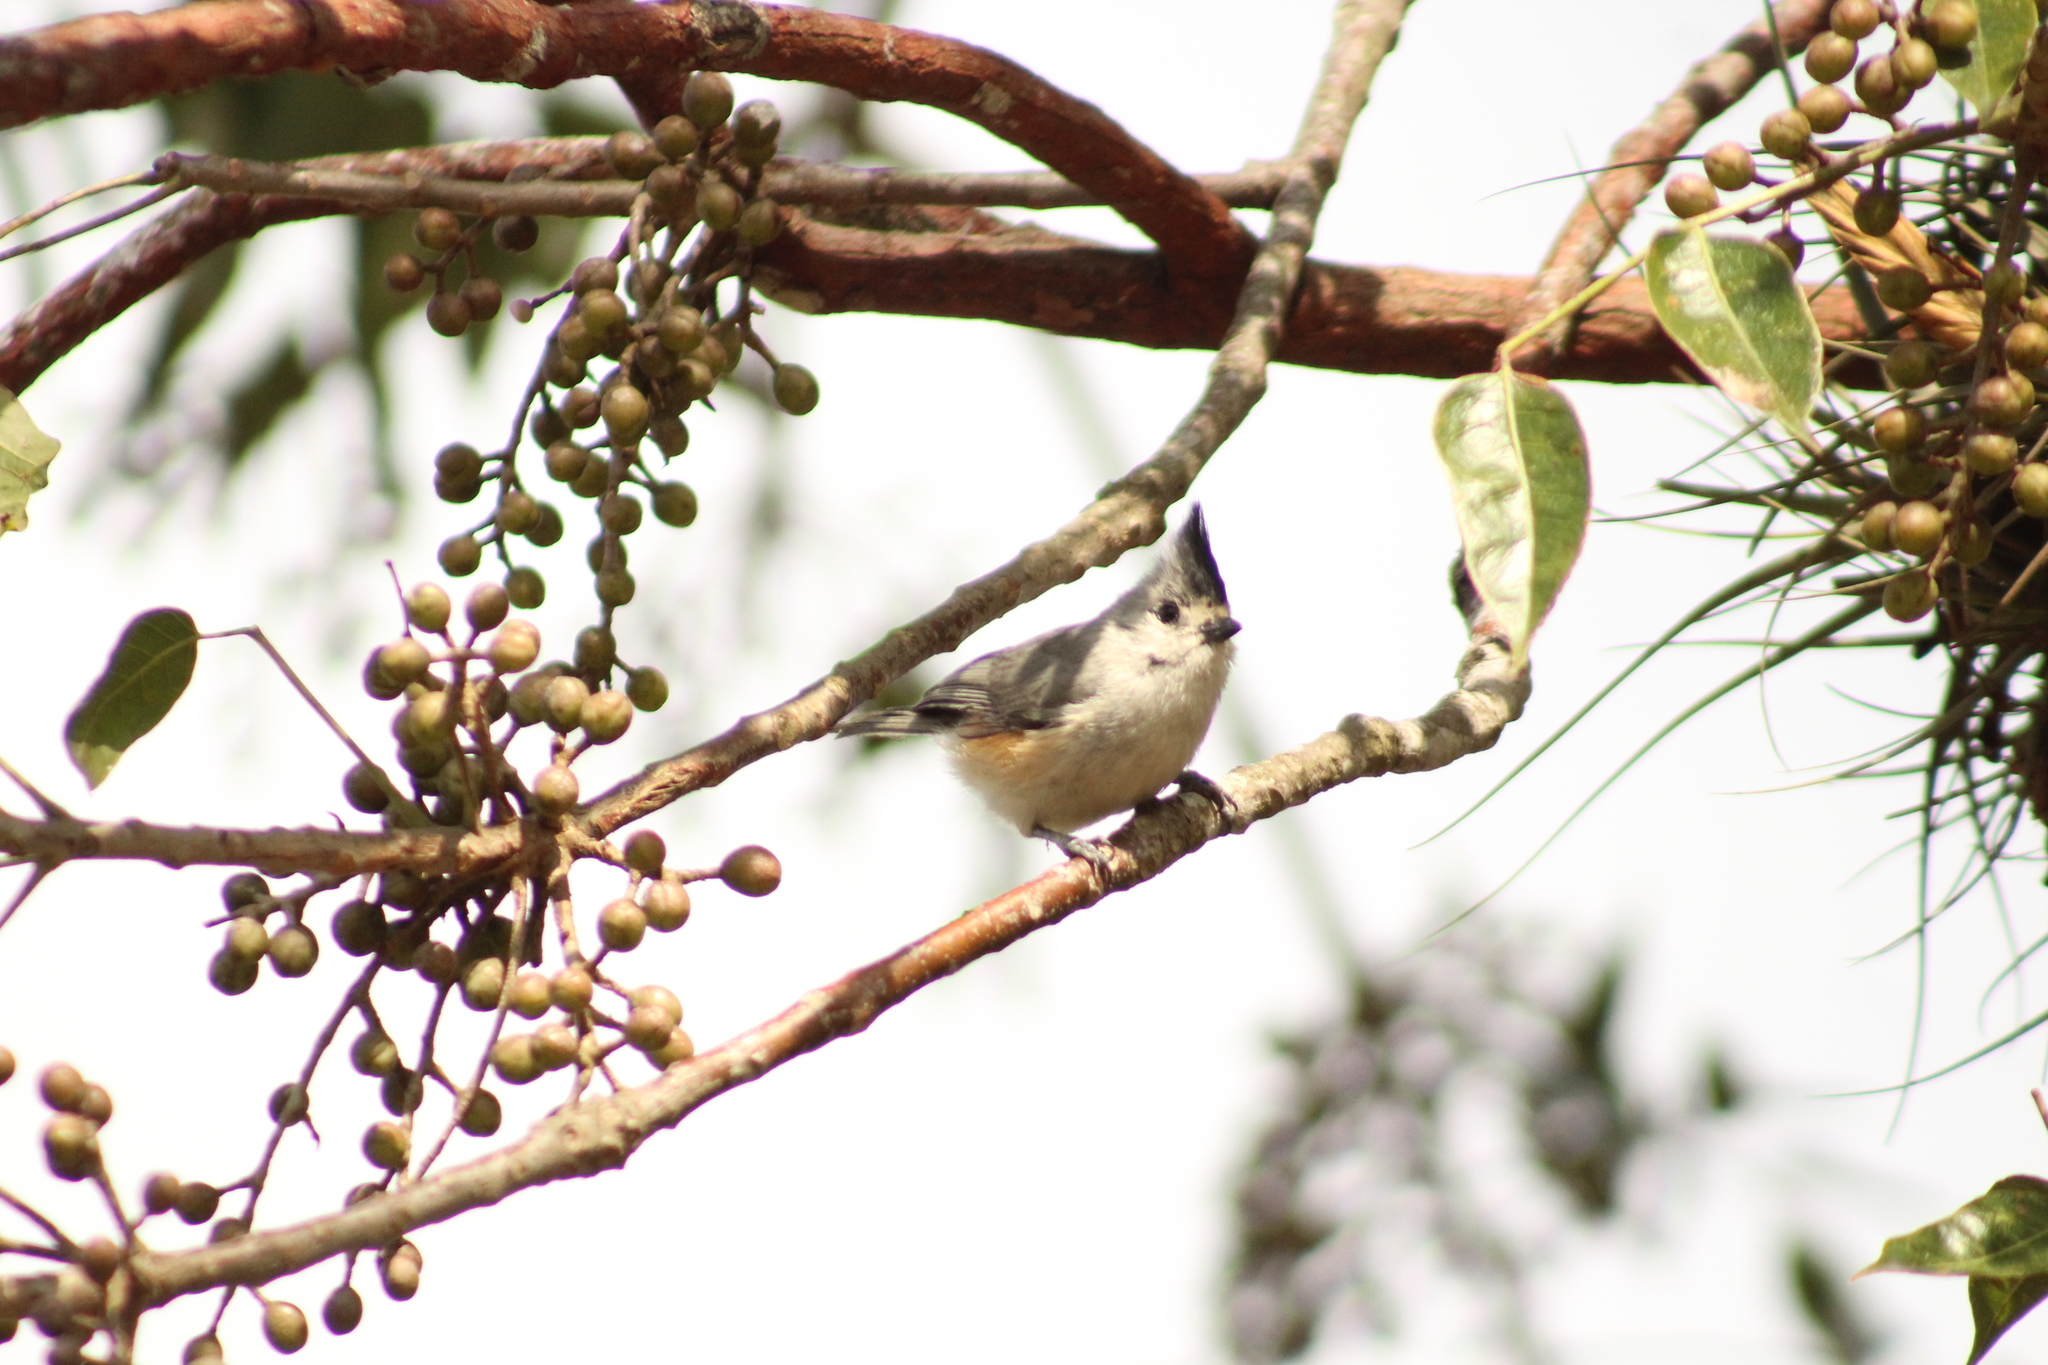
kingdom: Animalia
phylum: Chordata
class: Aves
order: Passeriformes
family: Paridae
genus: Baeolophus
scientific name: Baeolophus atricristatus
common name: Black-crested titmouse
